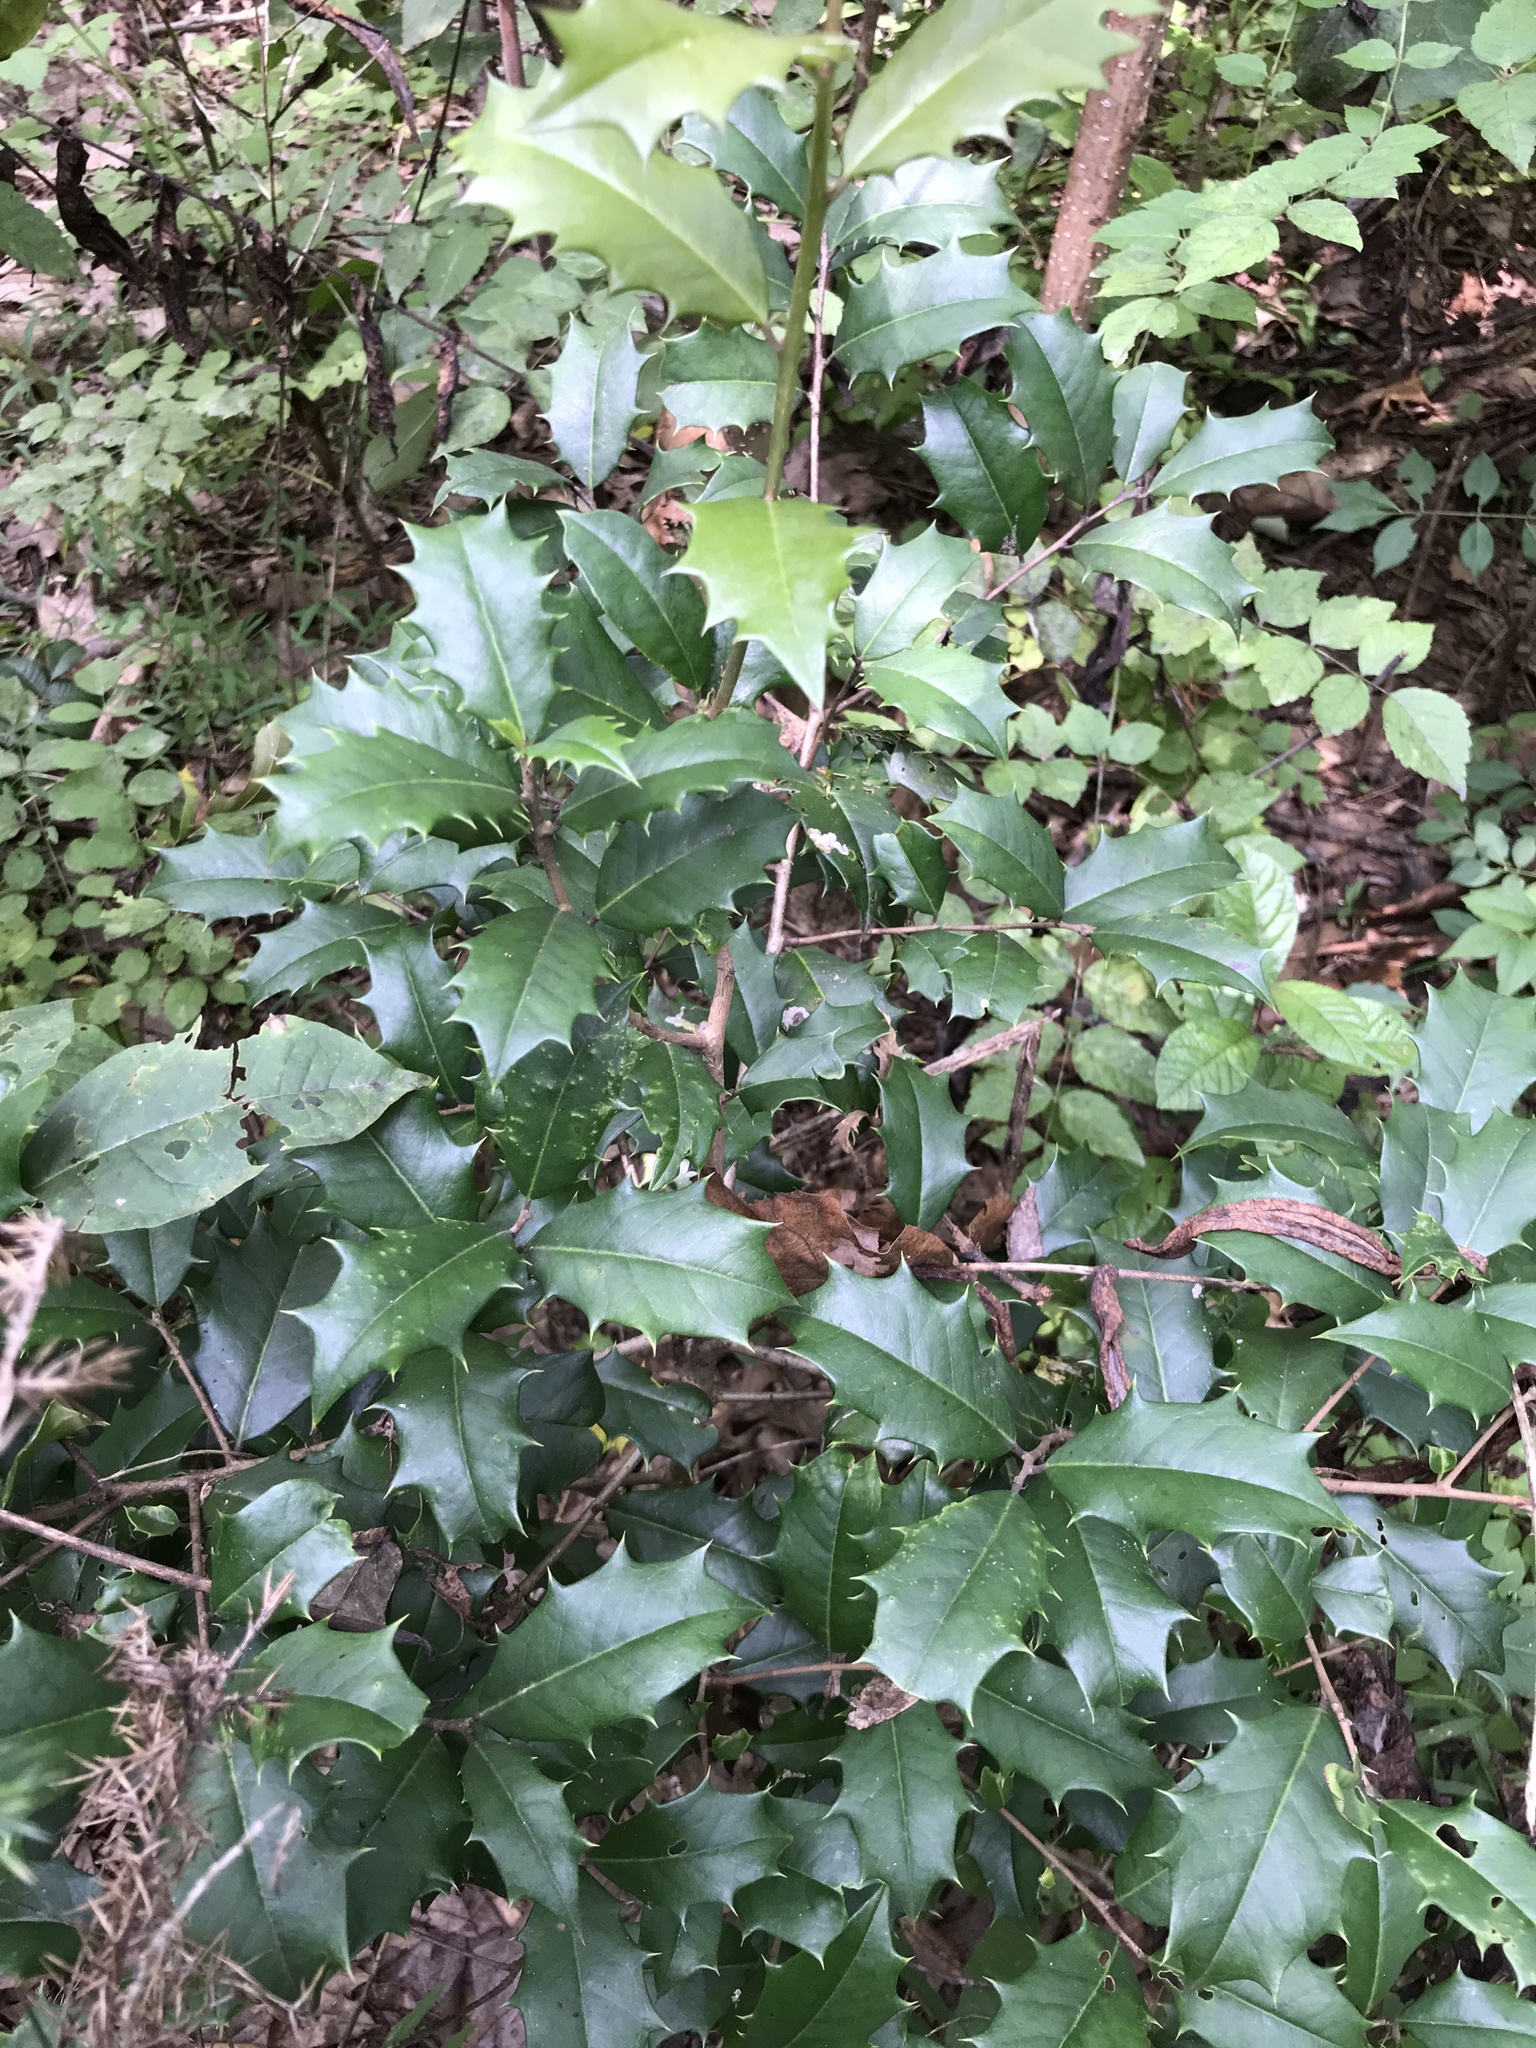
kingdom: Plantae
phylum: Tracheophyta
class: Magnoliopsida
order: Aquifoliales
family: Aquifoliaceae
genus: Ilex
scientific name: Ilex opaca
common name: American holly
